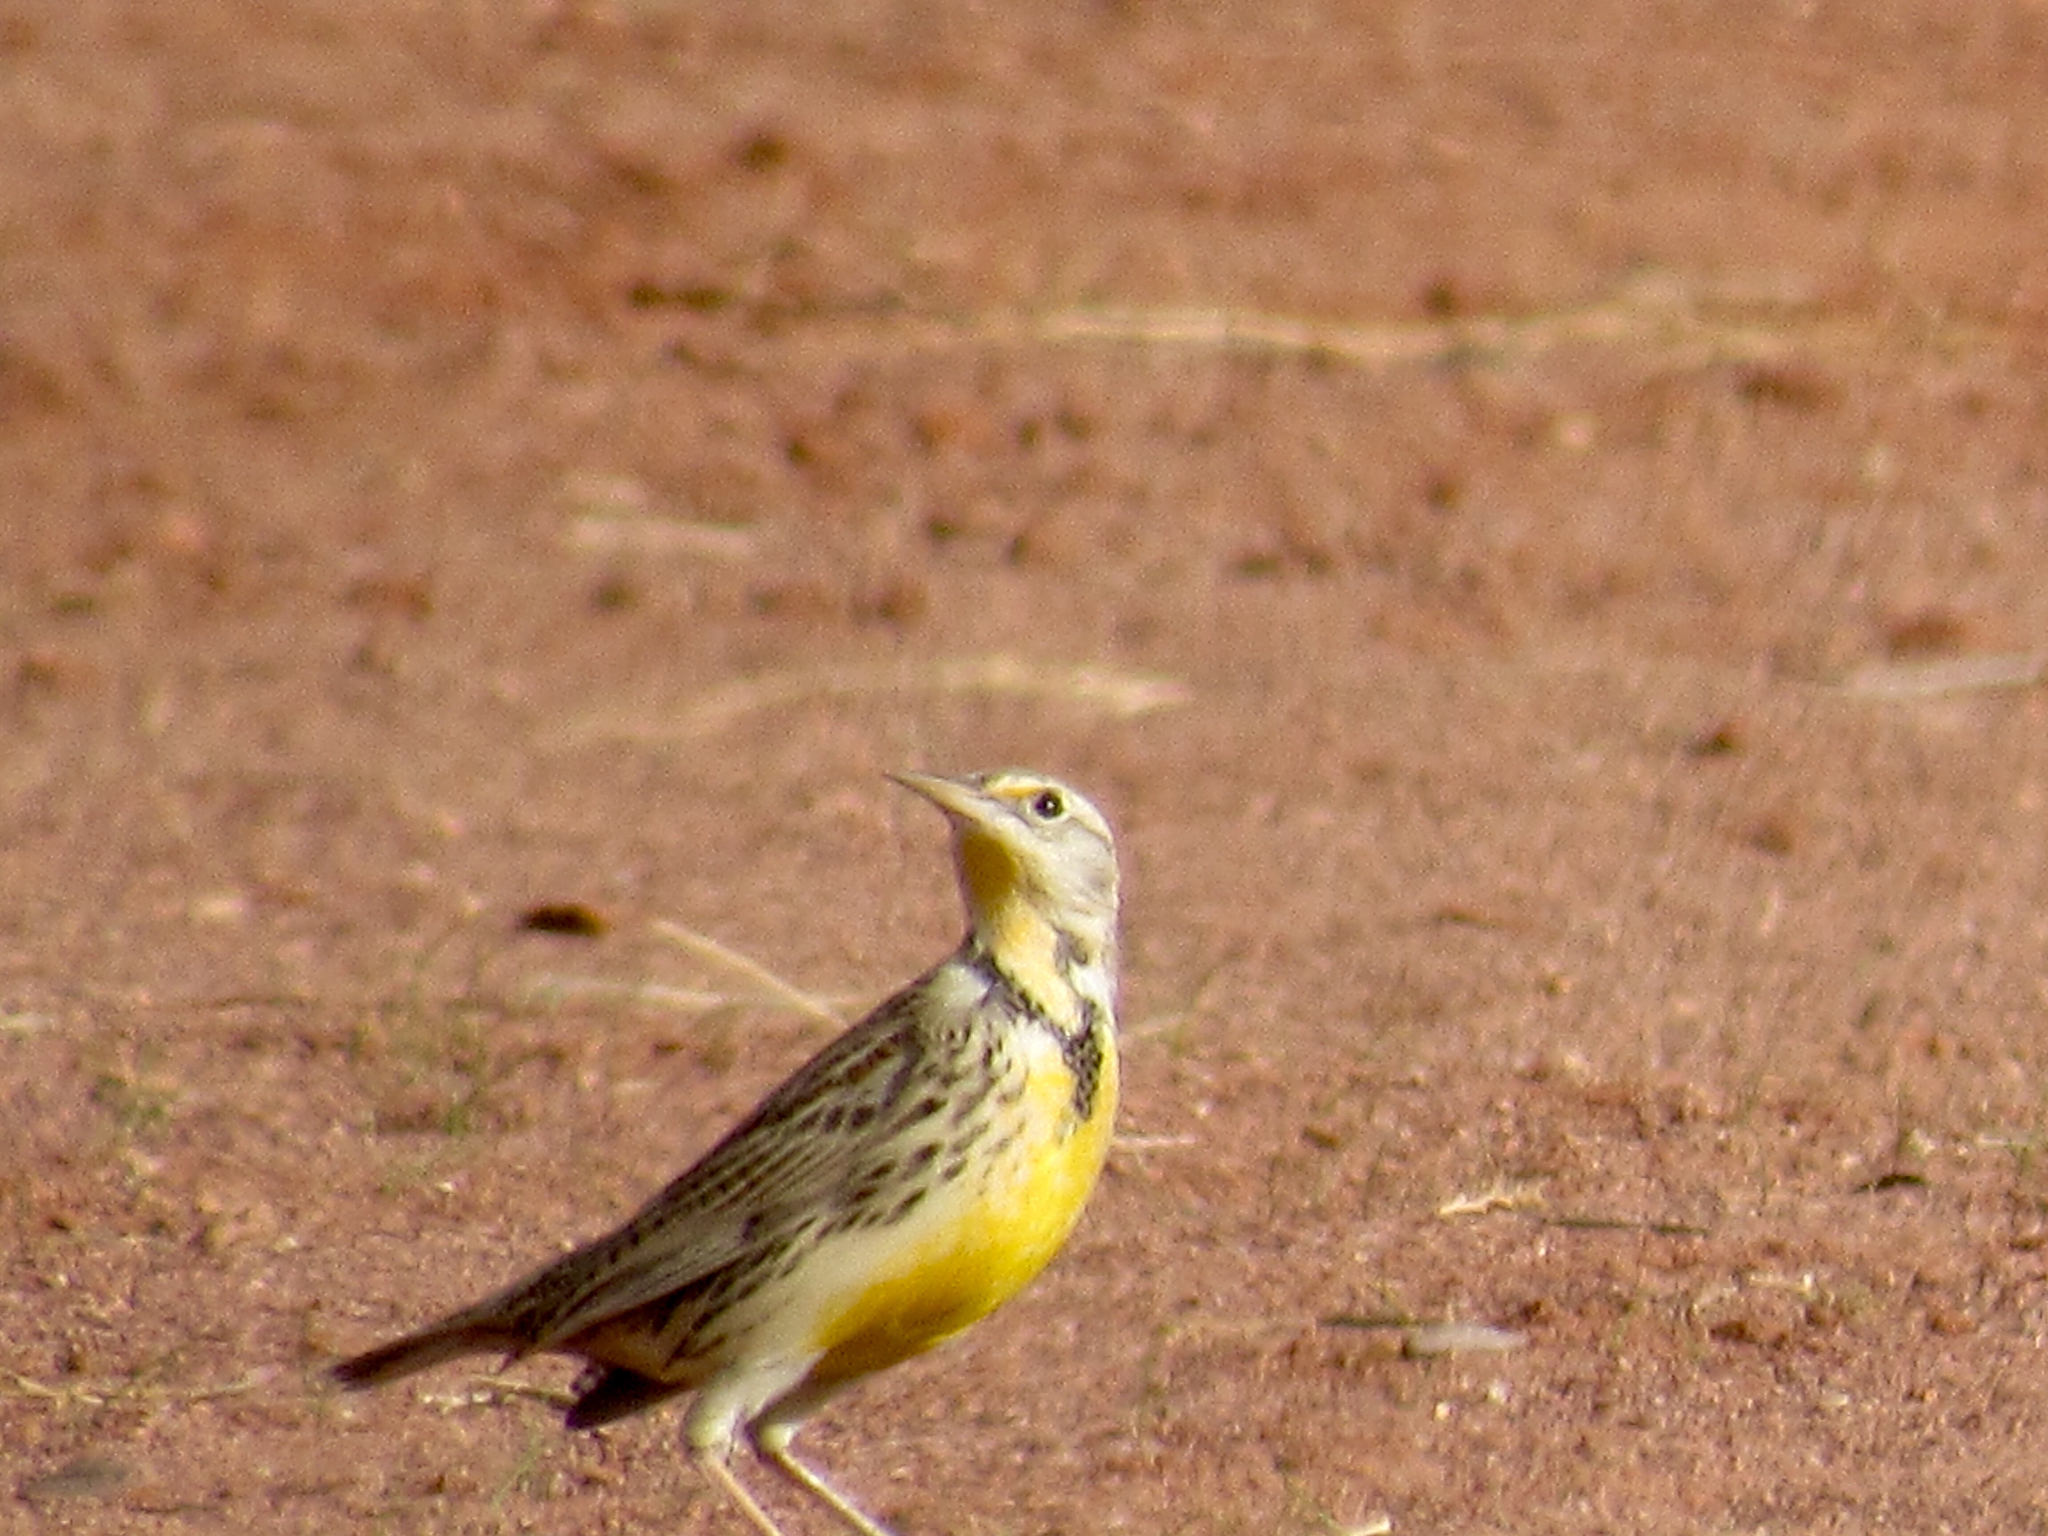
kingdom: Animalia
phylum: Chordata
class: Aves
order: Passeriformes
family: Icteridae
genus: Sturnella
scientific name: Sturnella neglecta
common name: Western meadowlark
